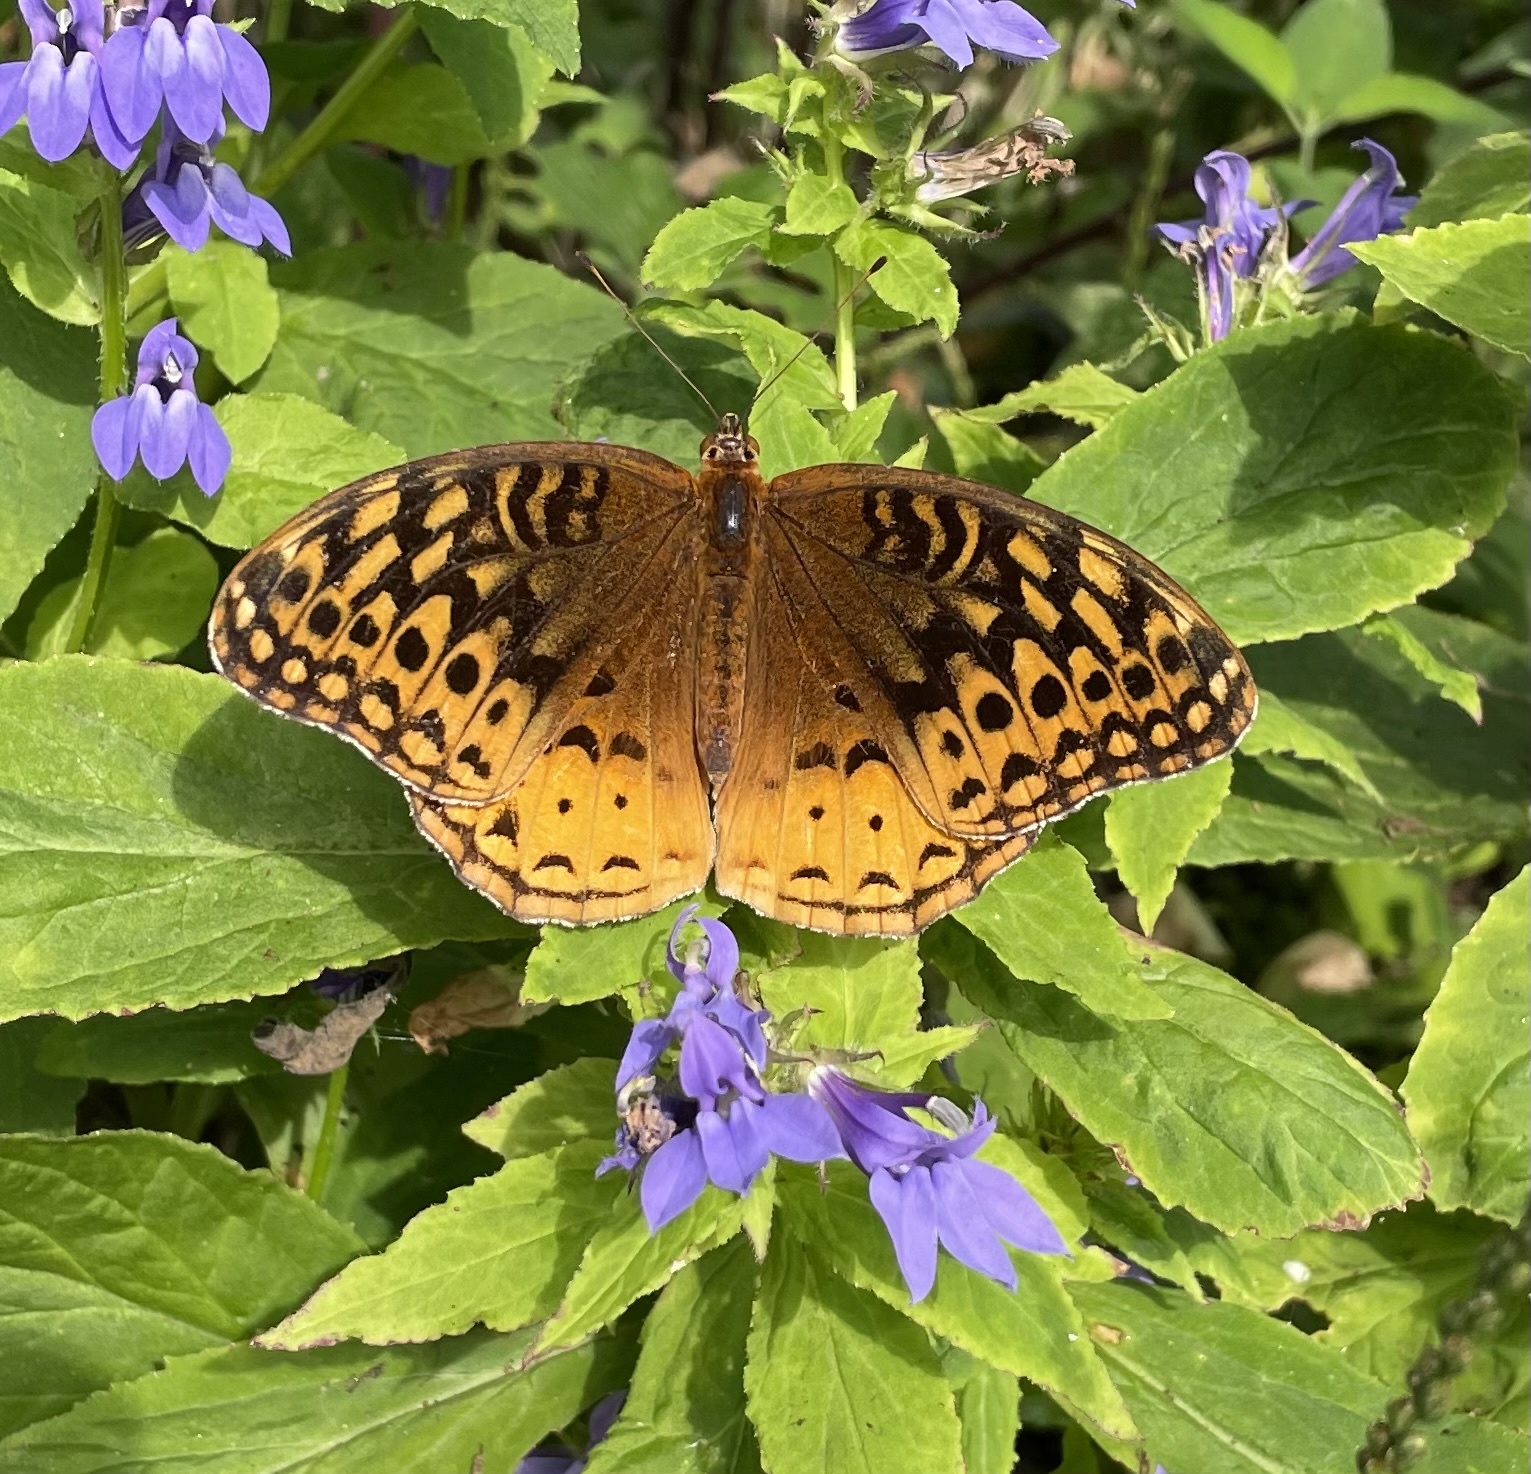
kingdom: Animalia
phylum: Arthropoda
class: Insecta
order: Lepidoptera
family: Nymphalidae
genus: Speyeria
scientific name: Speyeria cybele
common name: Great spangled fritillary
